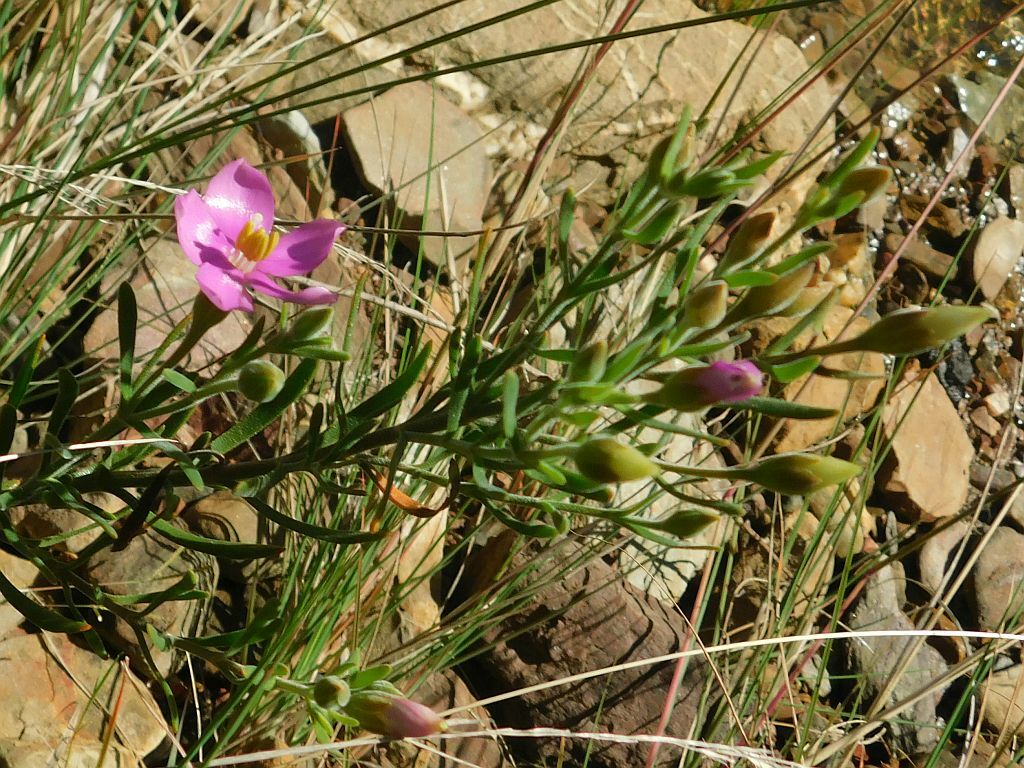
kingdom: Plantae
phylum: Tracheophyta
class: Magnoliopsida
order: Gentianales
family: Gentianaceae
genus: Orphium
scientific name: Orphium frutescens
